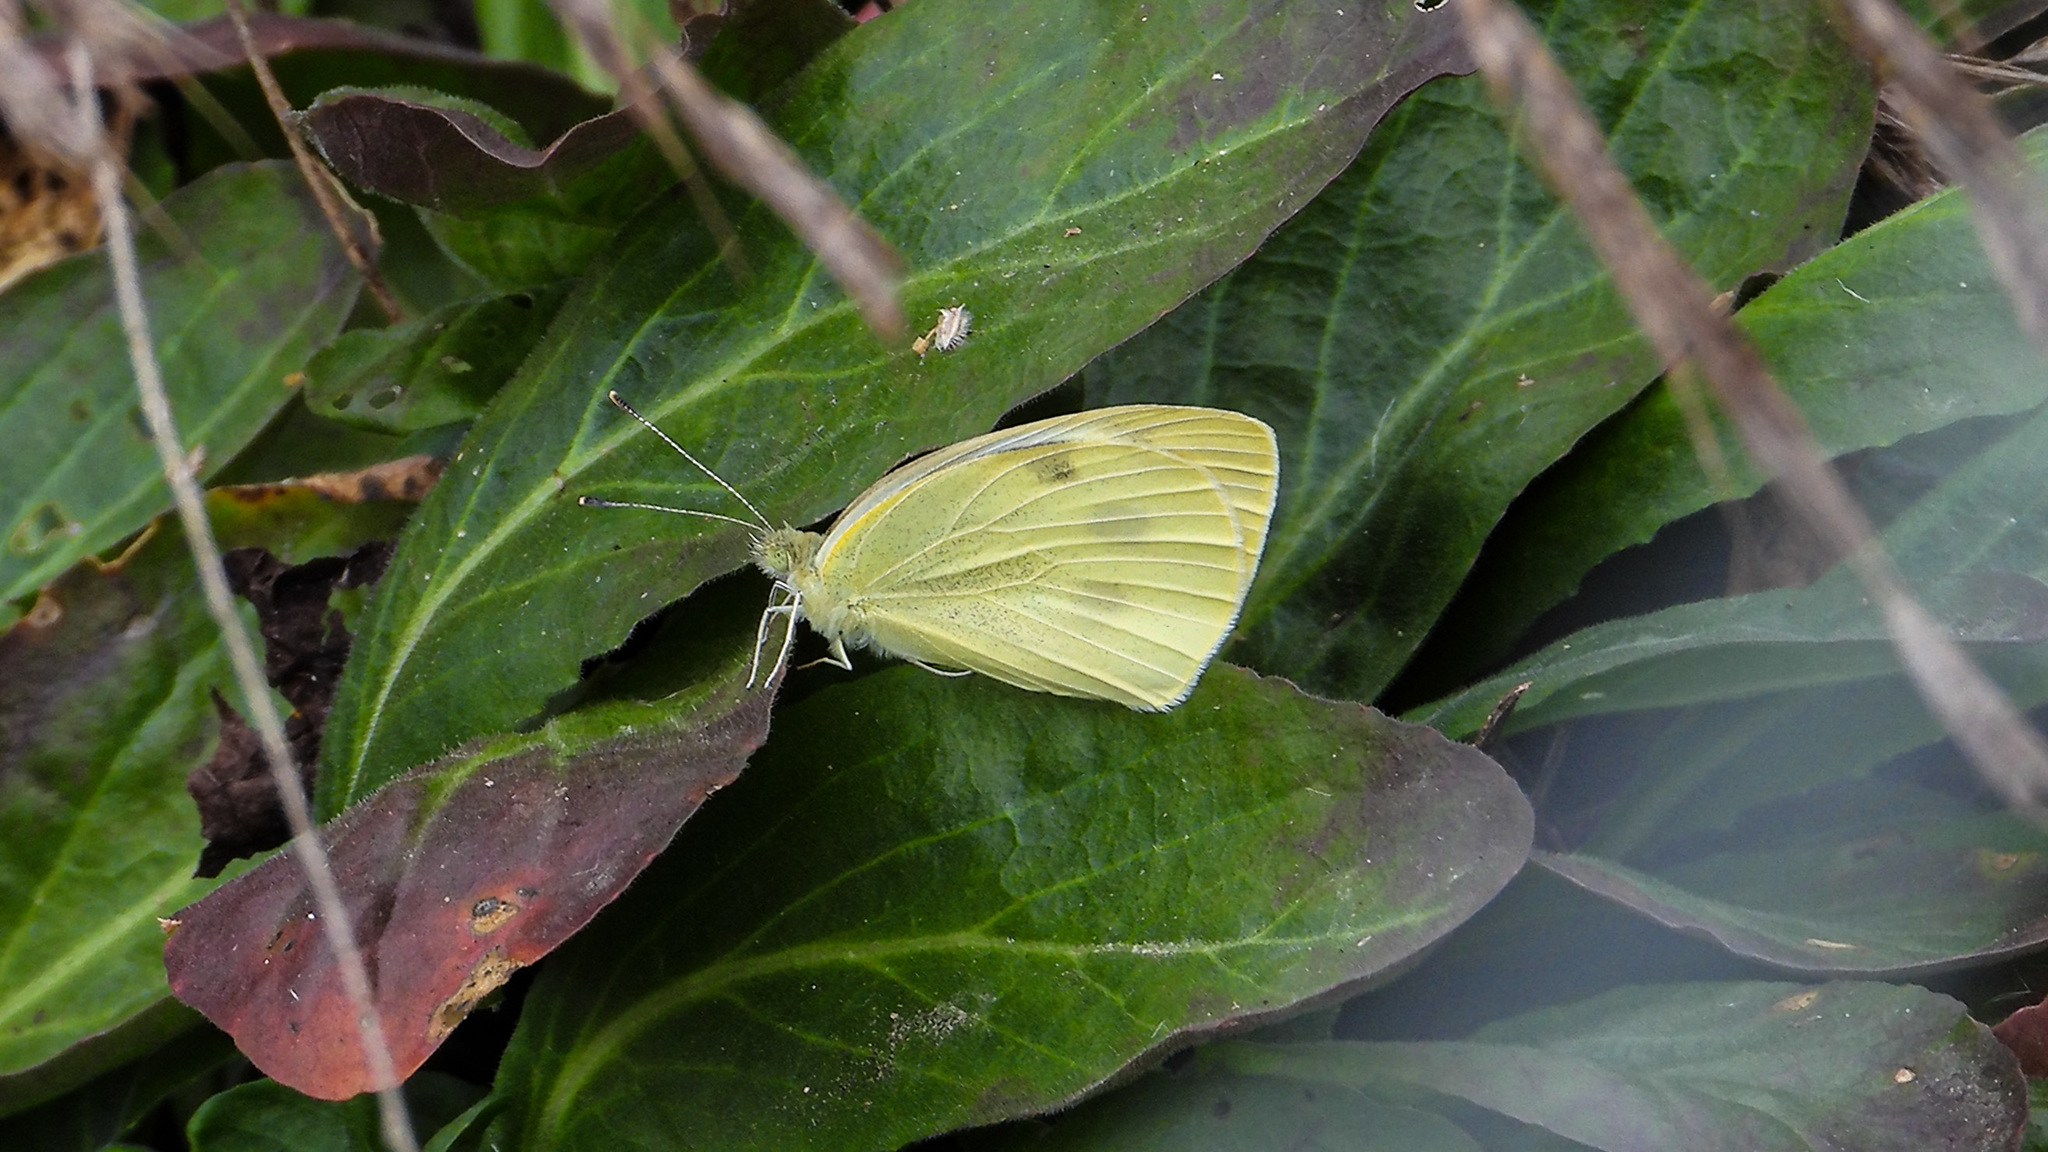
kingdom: Animalia
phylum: Arthropoda
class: Insecta
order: Lepidoptera
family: Pieridae
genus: Pieris
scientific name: Pieris rapae
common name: Small white
